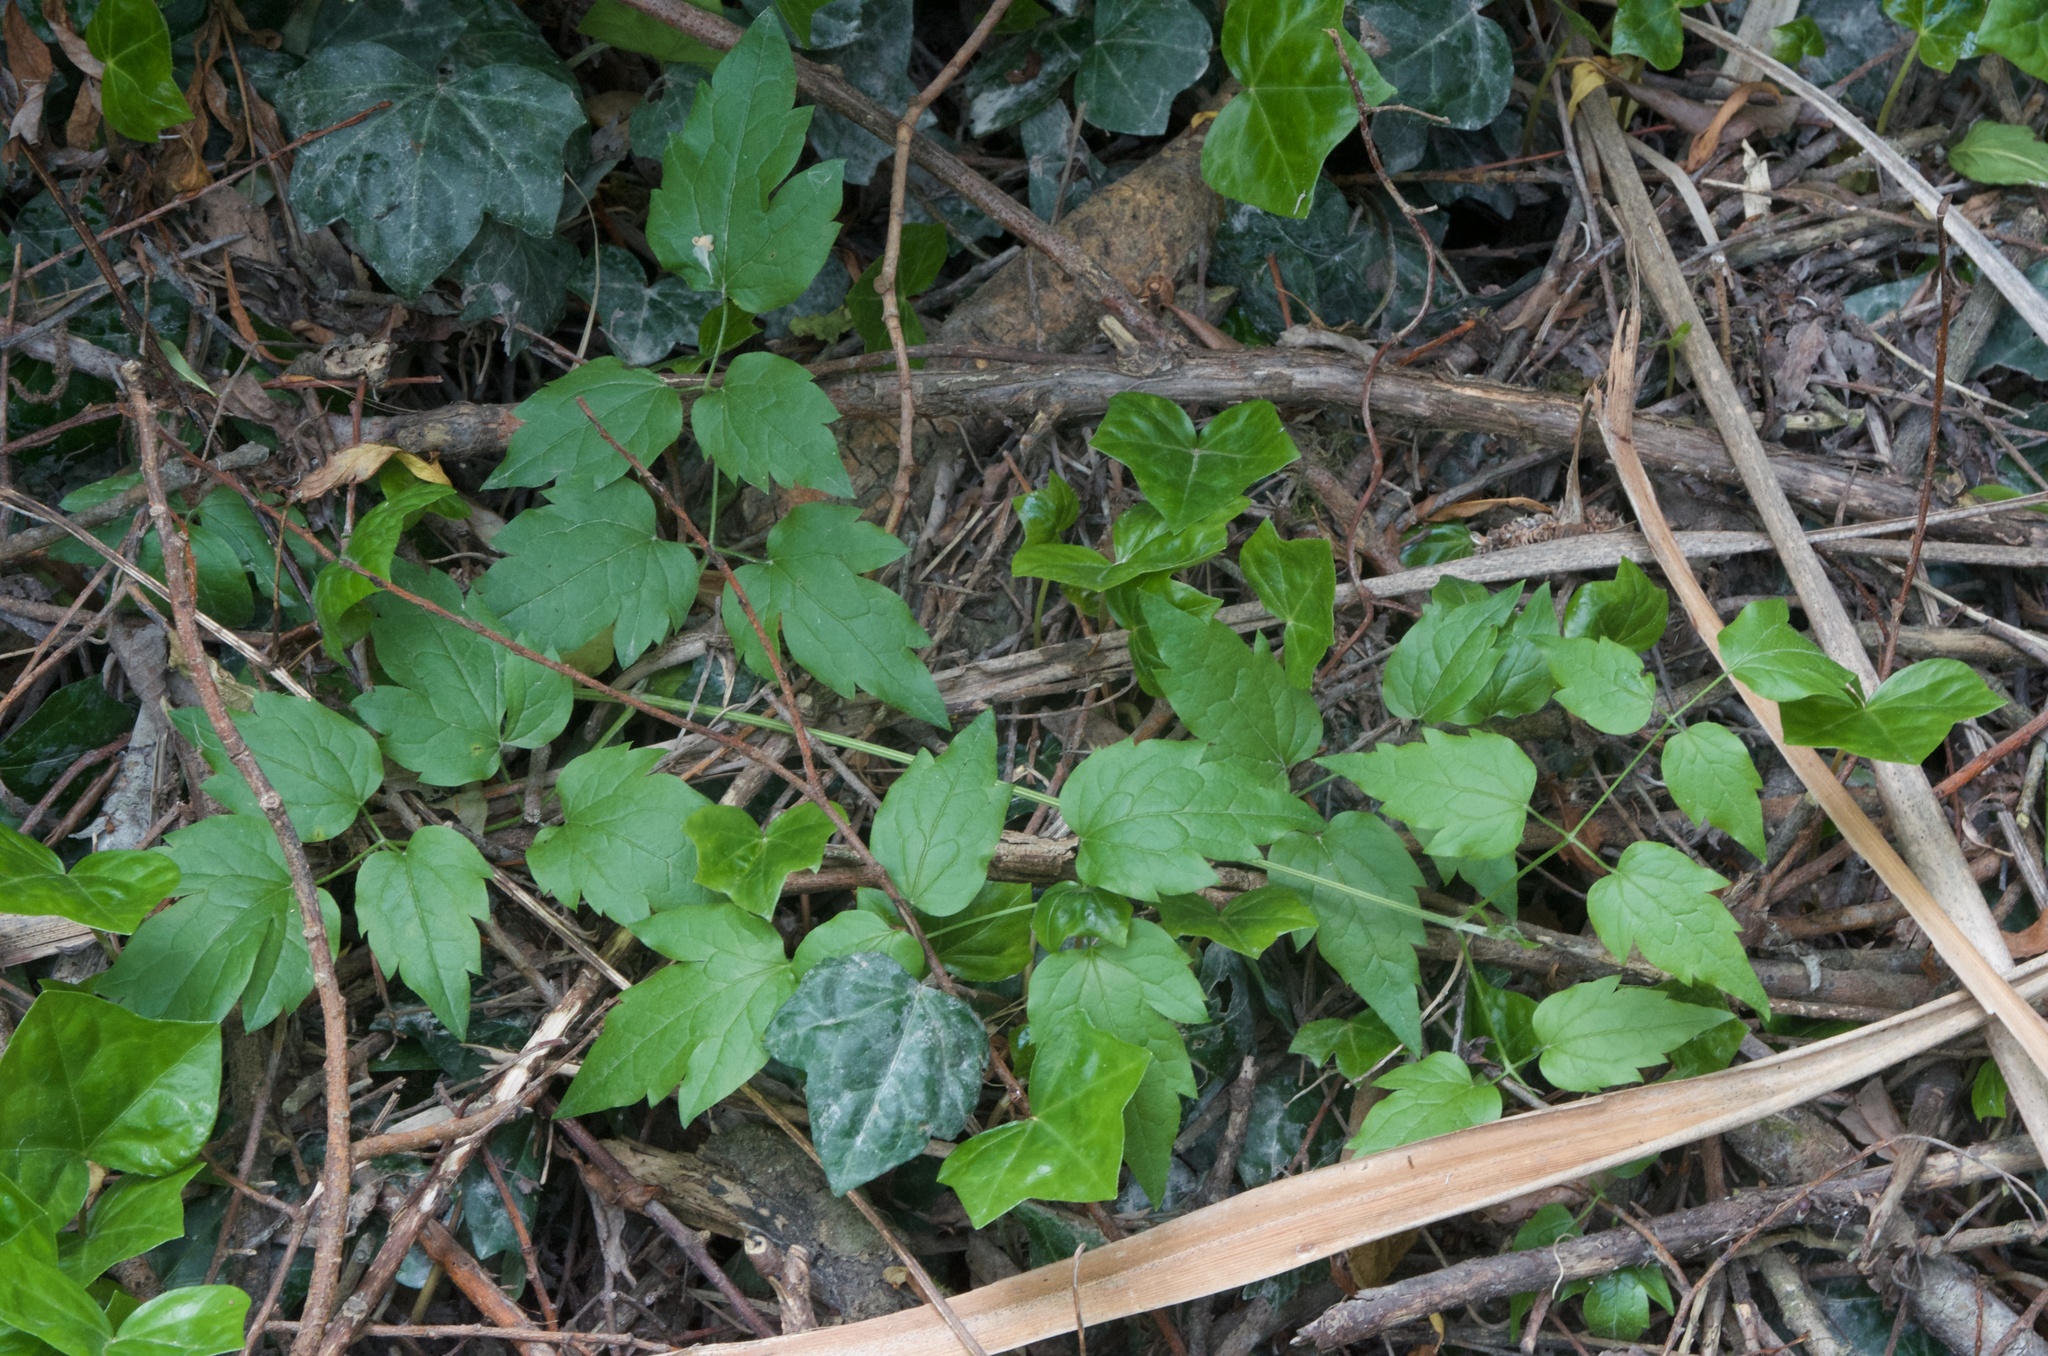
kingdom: Plantae
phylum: Tracheophyta
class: Magnoliopsida
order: Ranunculales
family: Ranunculaceae
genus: Clematis
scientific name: Clematis vitalba
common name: Evergreen clematis
